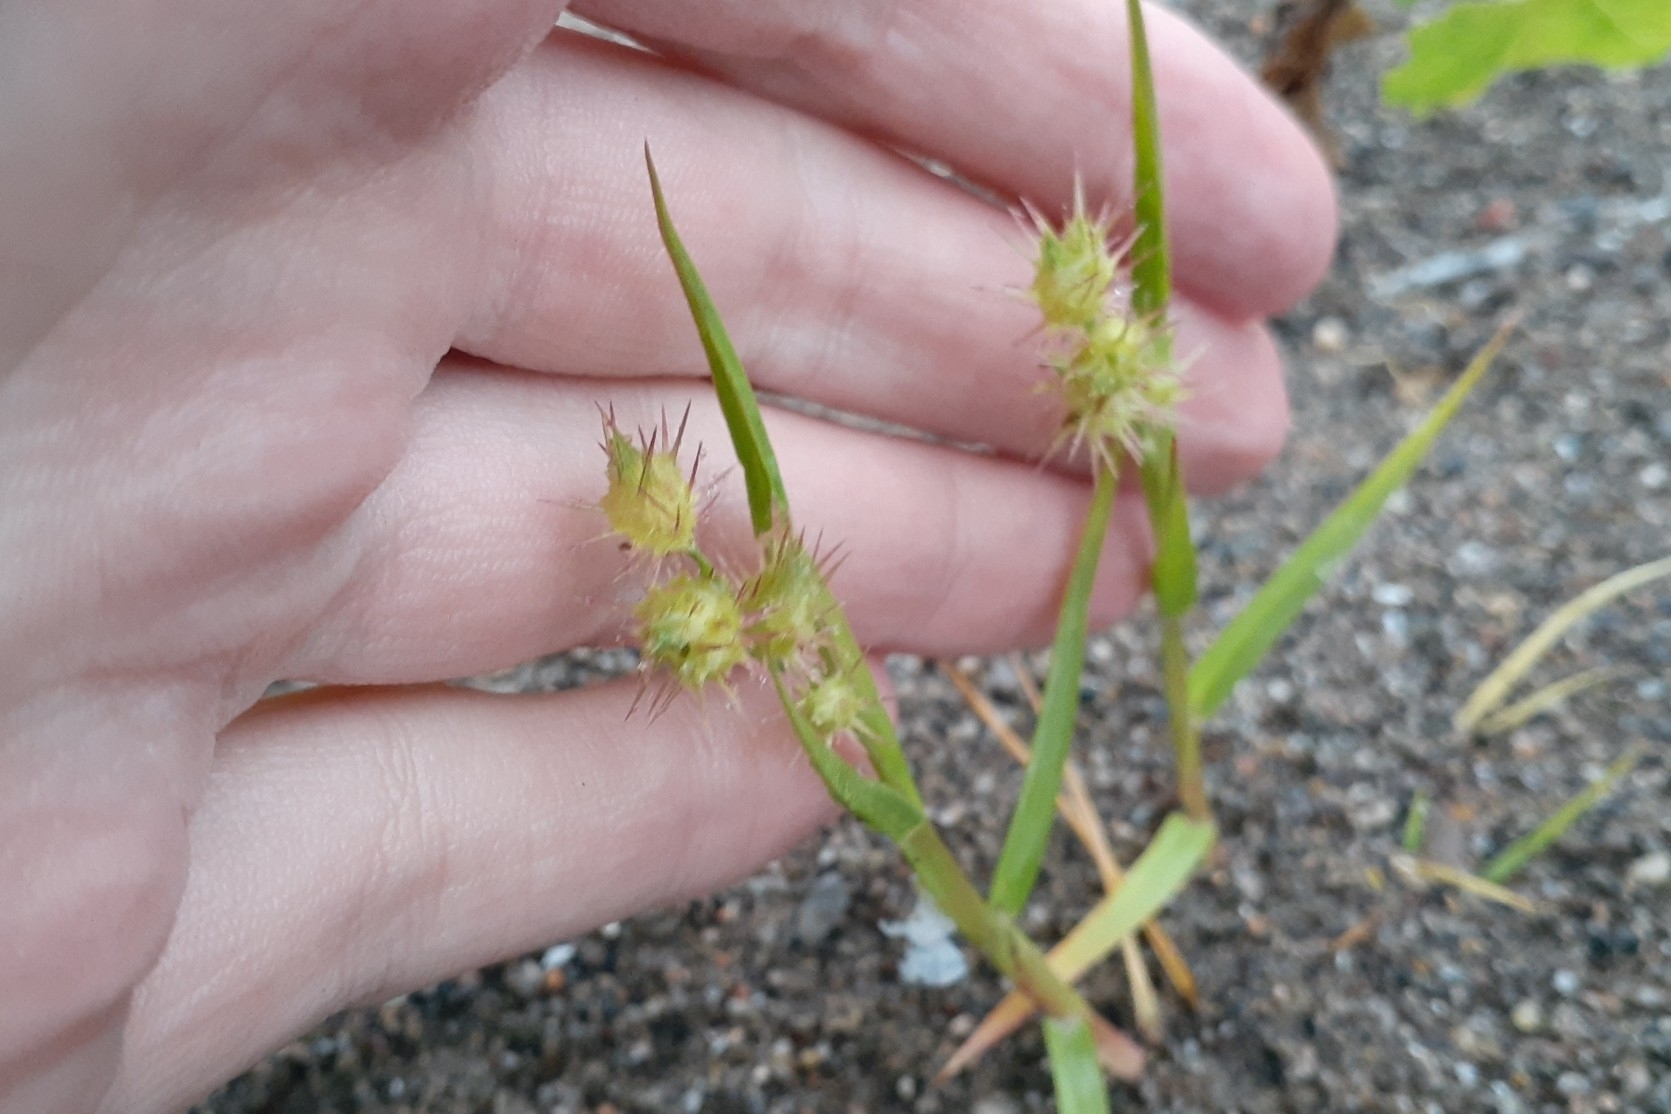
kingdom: Plantae
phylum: Tracheophyta
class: Liliopsida
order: Poales
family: Poaceae
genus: Cenchrus
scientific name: Cenchrus longispinus
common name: Mat sandbur
